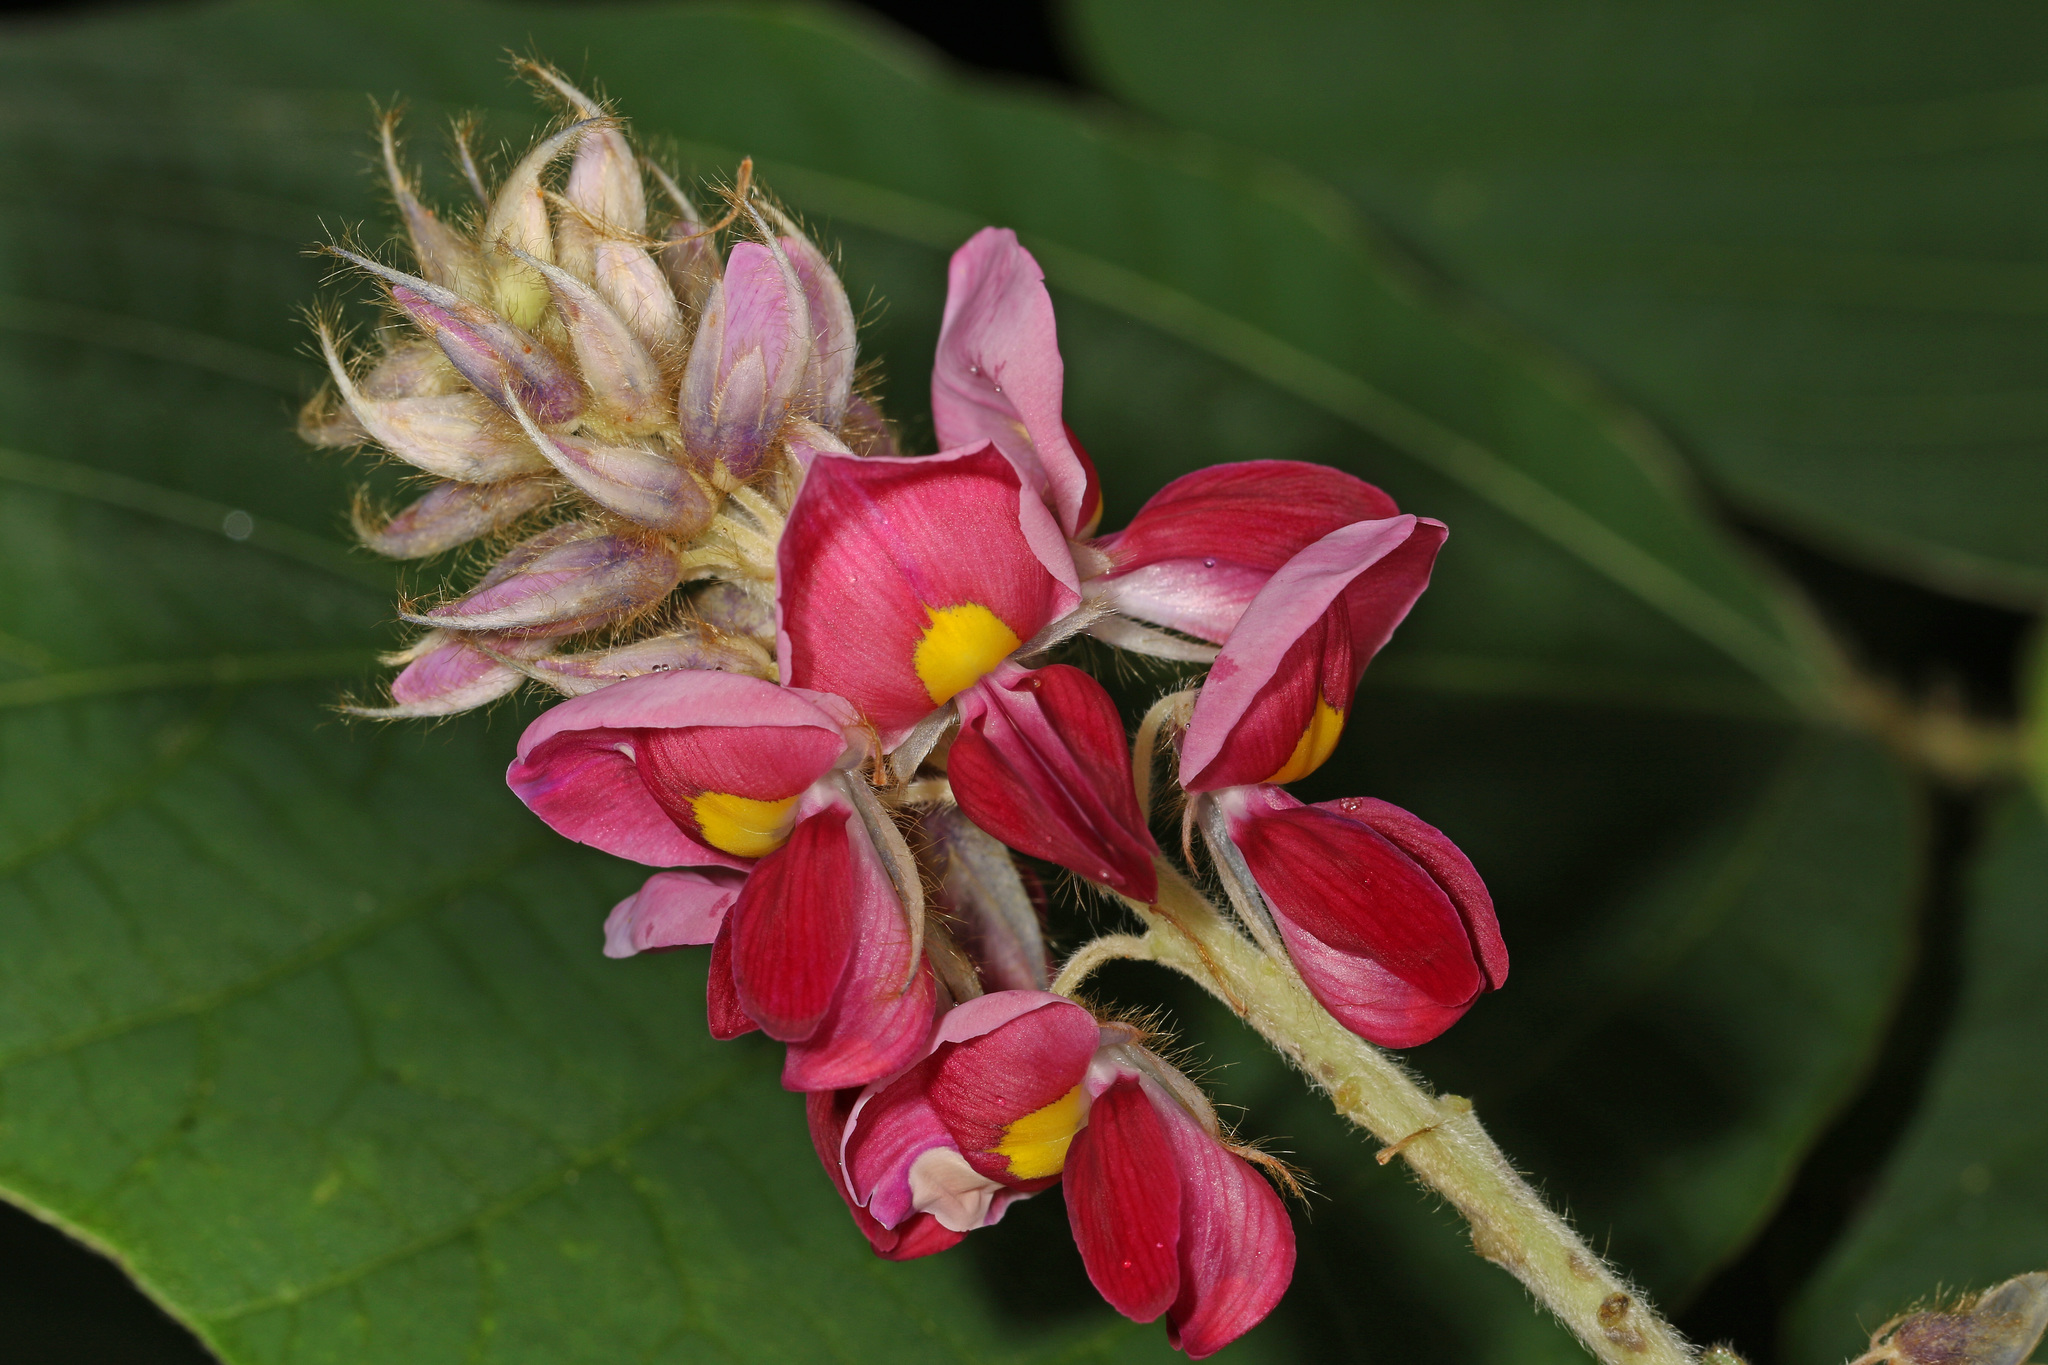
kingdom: Plantae
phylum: Tracheophyta
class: Magnoliopsida
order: Fabales
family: Fabaceae
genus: Pueraria
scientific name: Pueraria montana
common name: Kudzu
